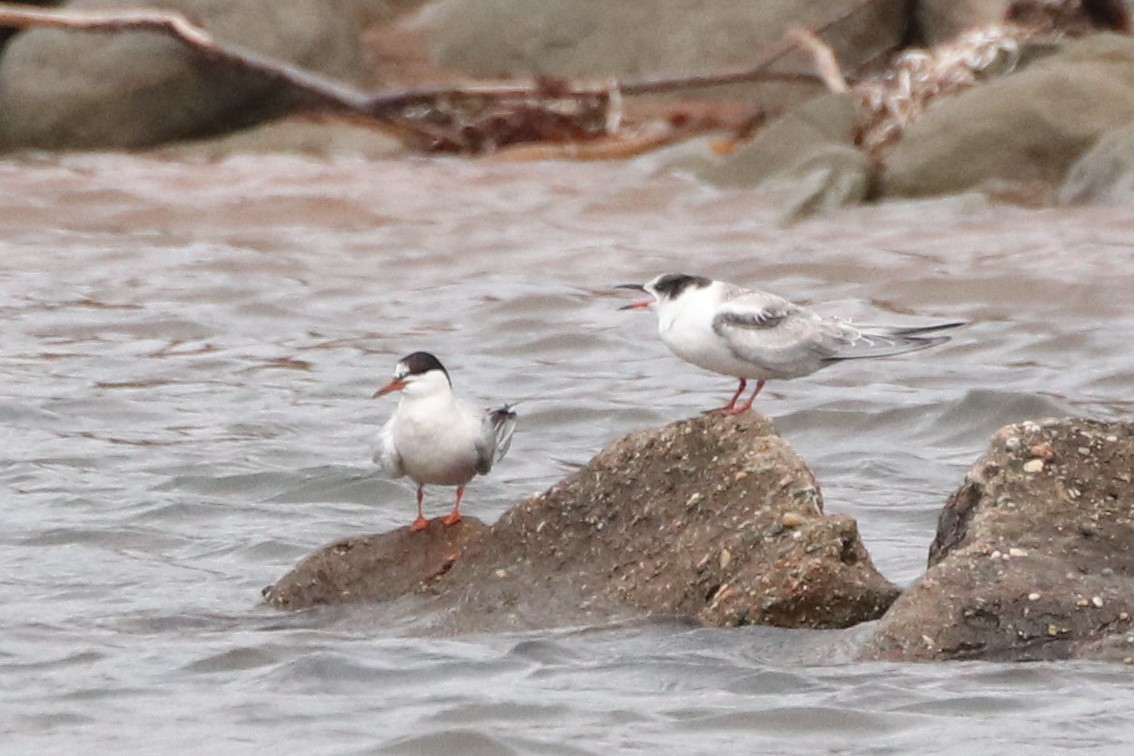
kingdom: Animalia
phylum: Chordata
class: Aves
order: Charadriiformes
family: Laridae
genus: Sterna
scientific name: Sterna hirundo
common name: Common tern
